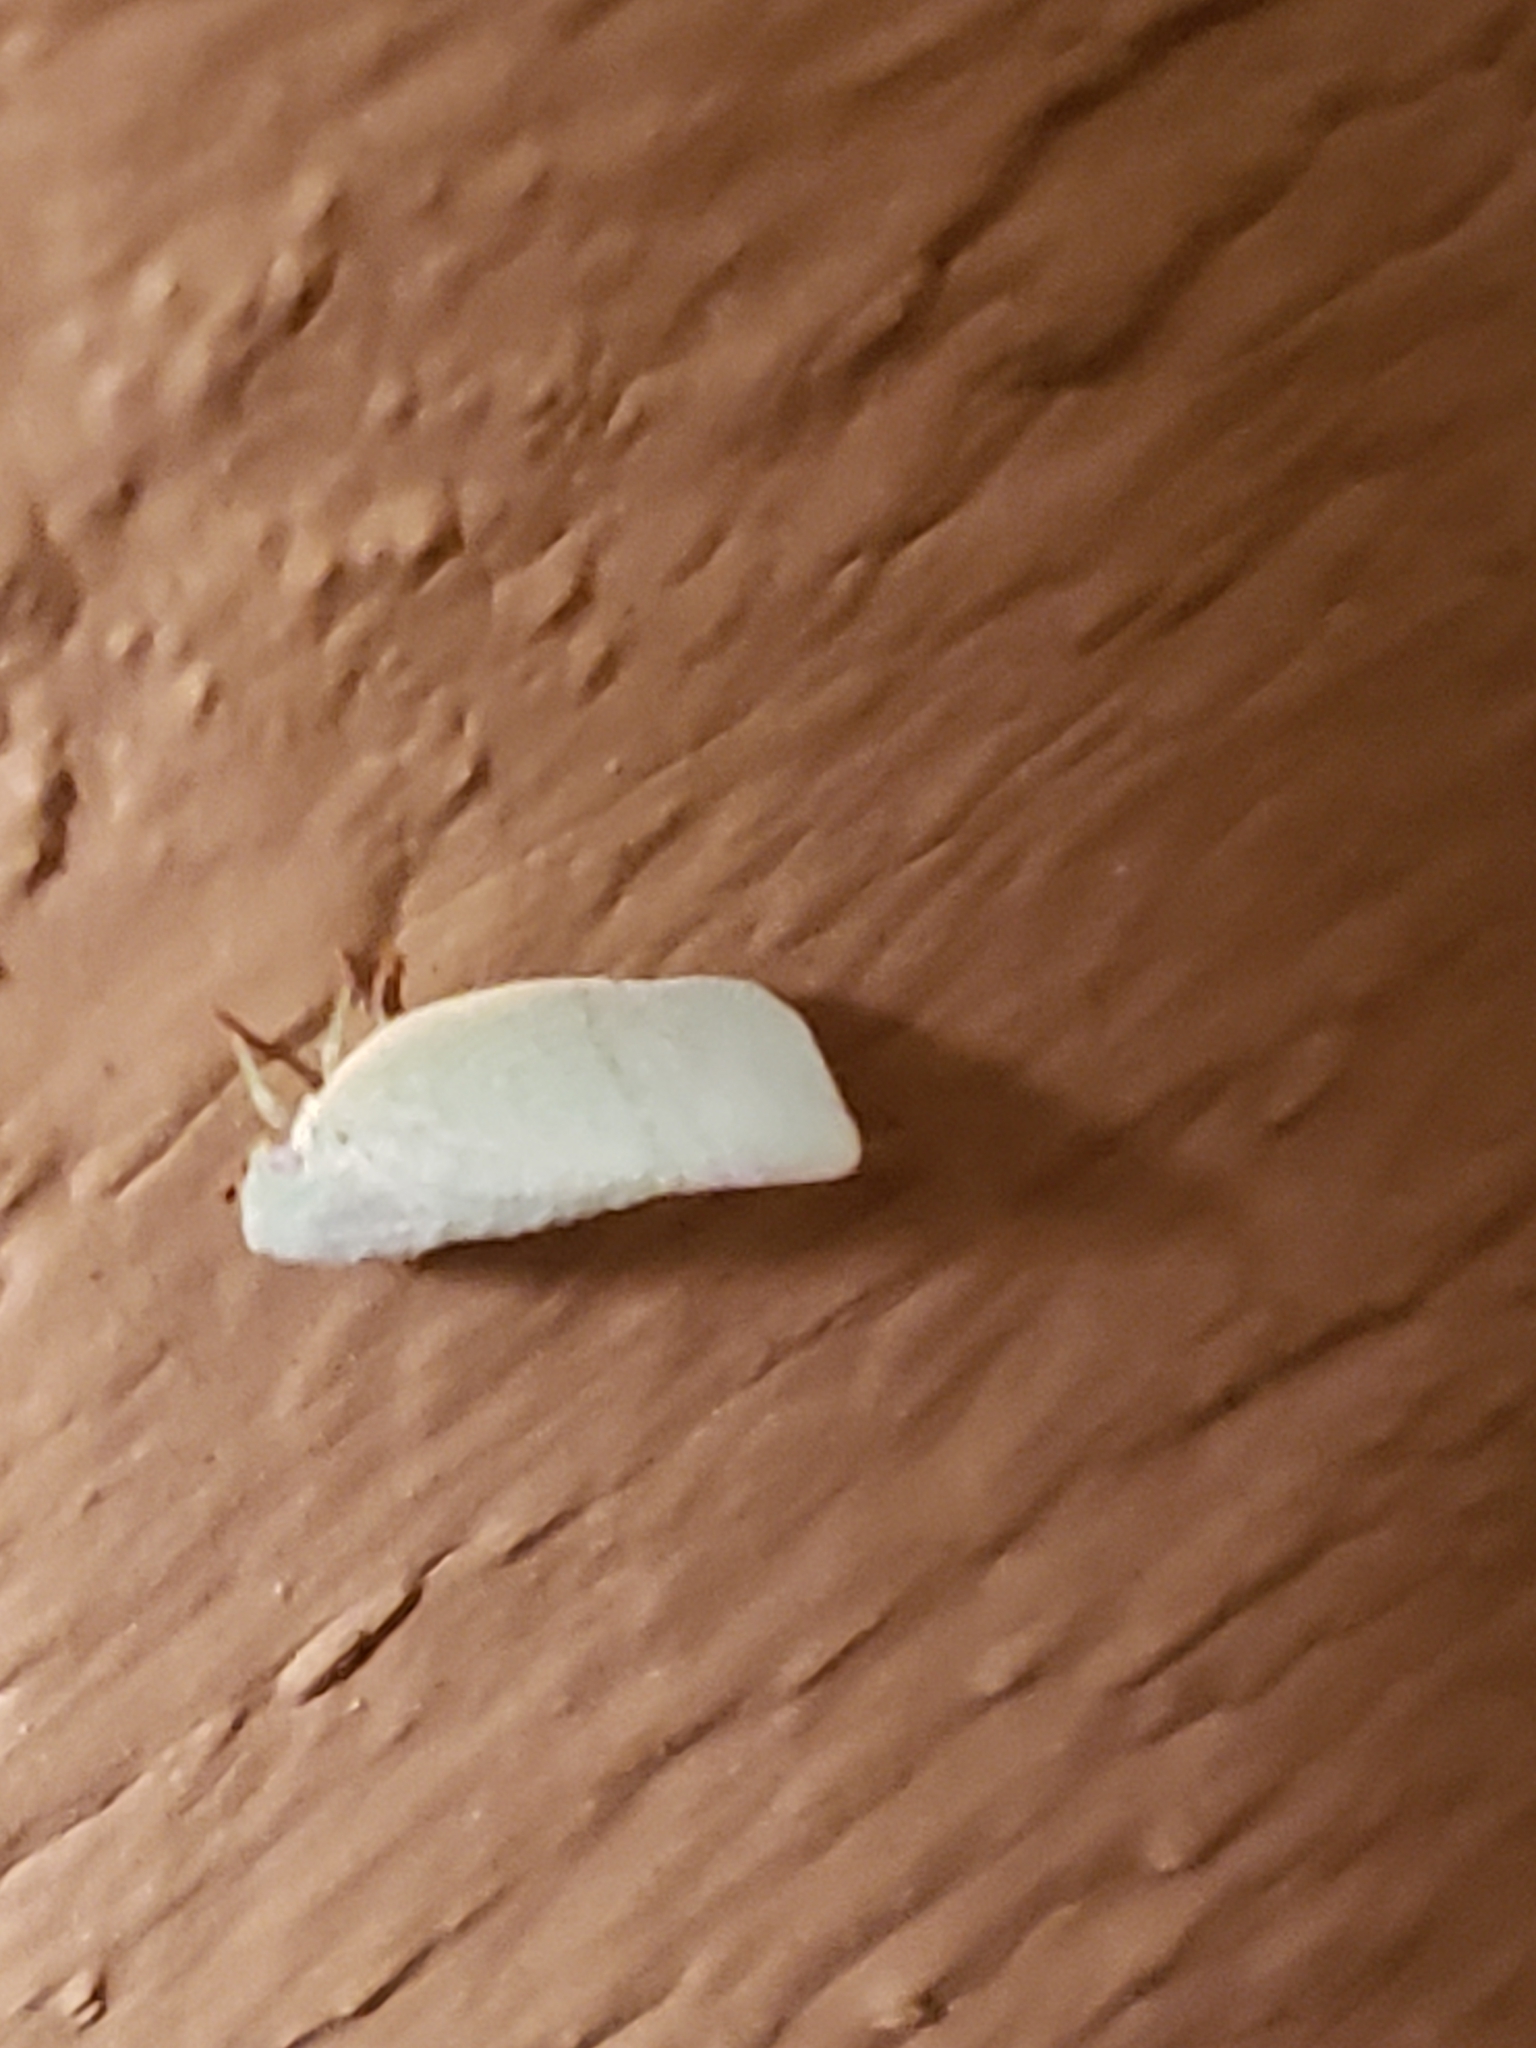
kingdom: Animalia
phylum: Arthropoda
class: Insecta
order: Hemiptera
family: Flatidae
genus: Flatormenis
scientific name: Flatormenis proxima
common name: Northern flatid planthopper
